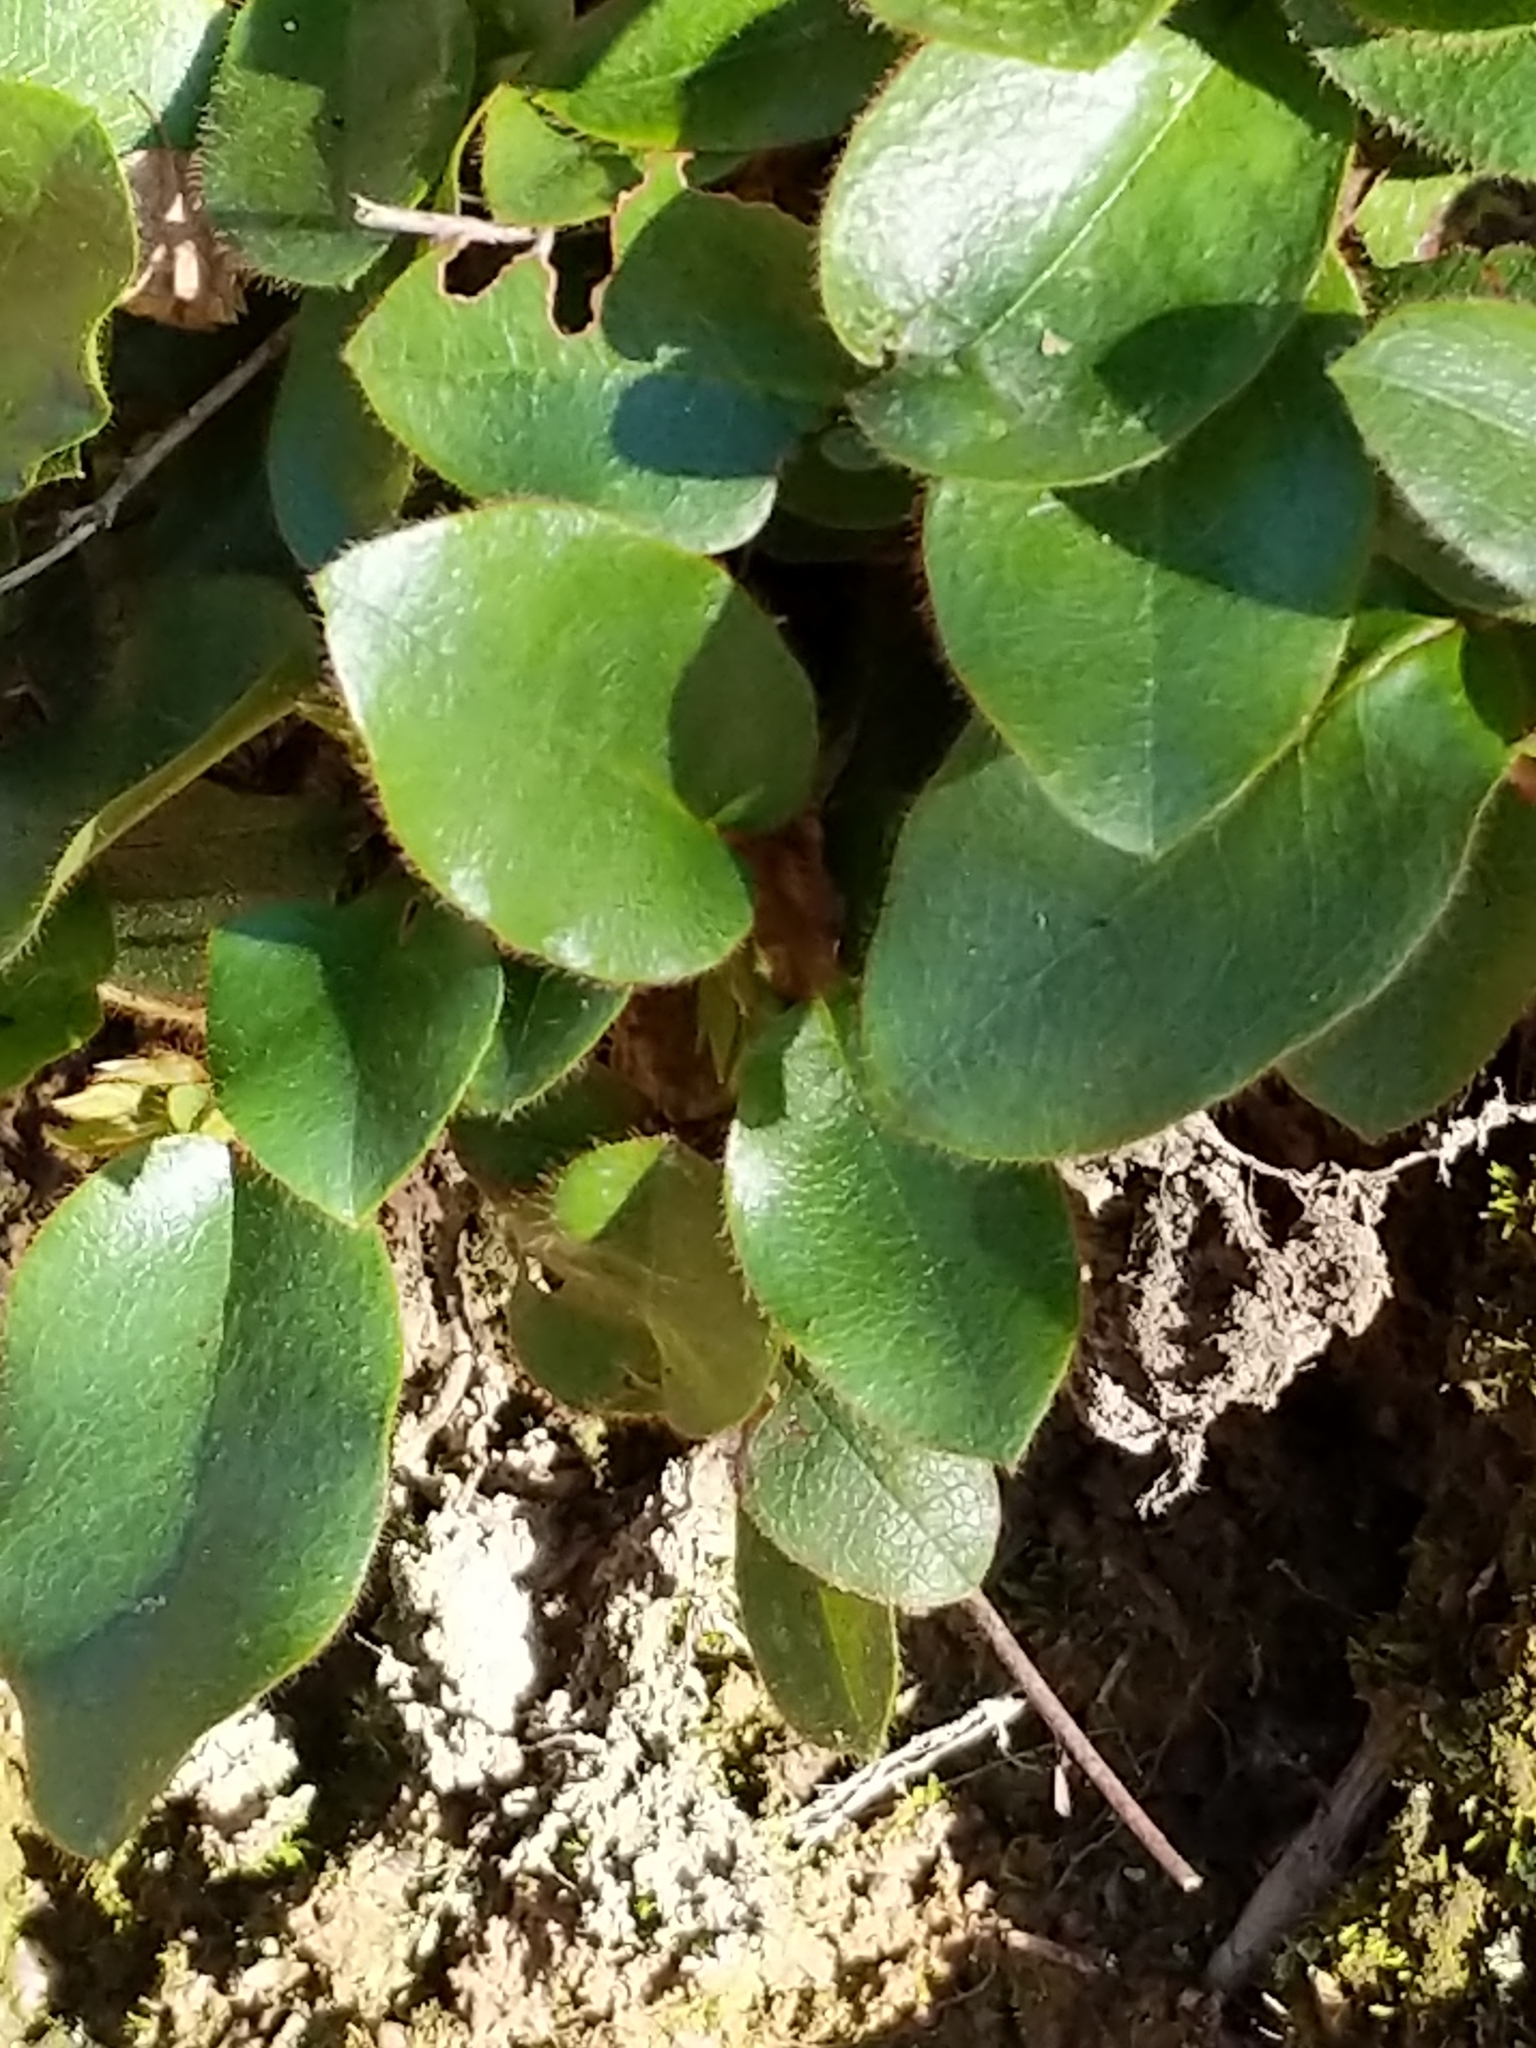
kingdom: Plantae
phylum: Tracheophyta
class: Magnoliopsida
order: Ericales
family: Ericaceae
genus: Epigaea
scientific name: Epigaea repens
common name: Gravelroot
